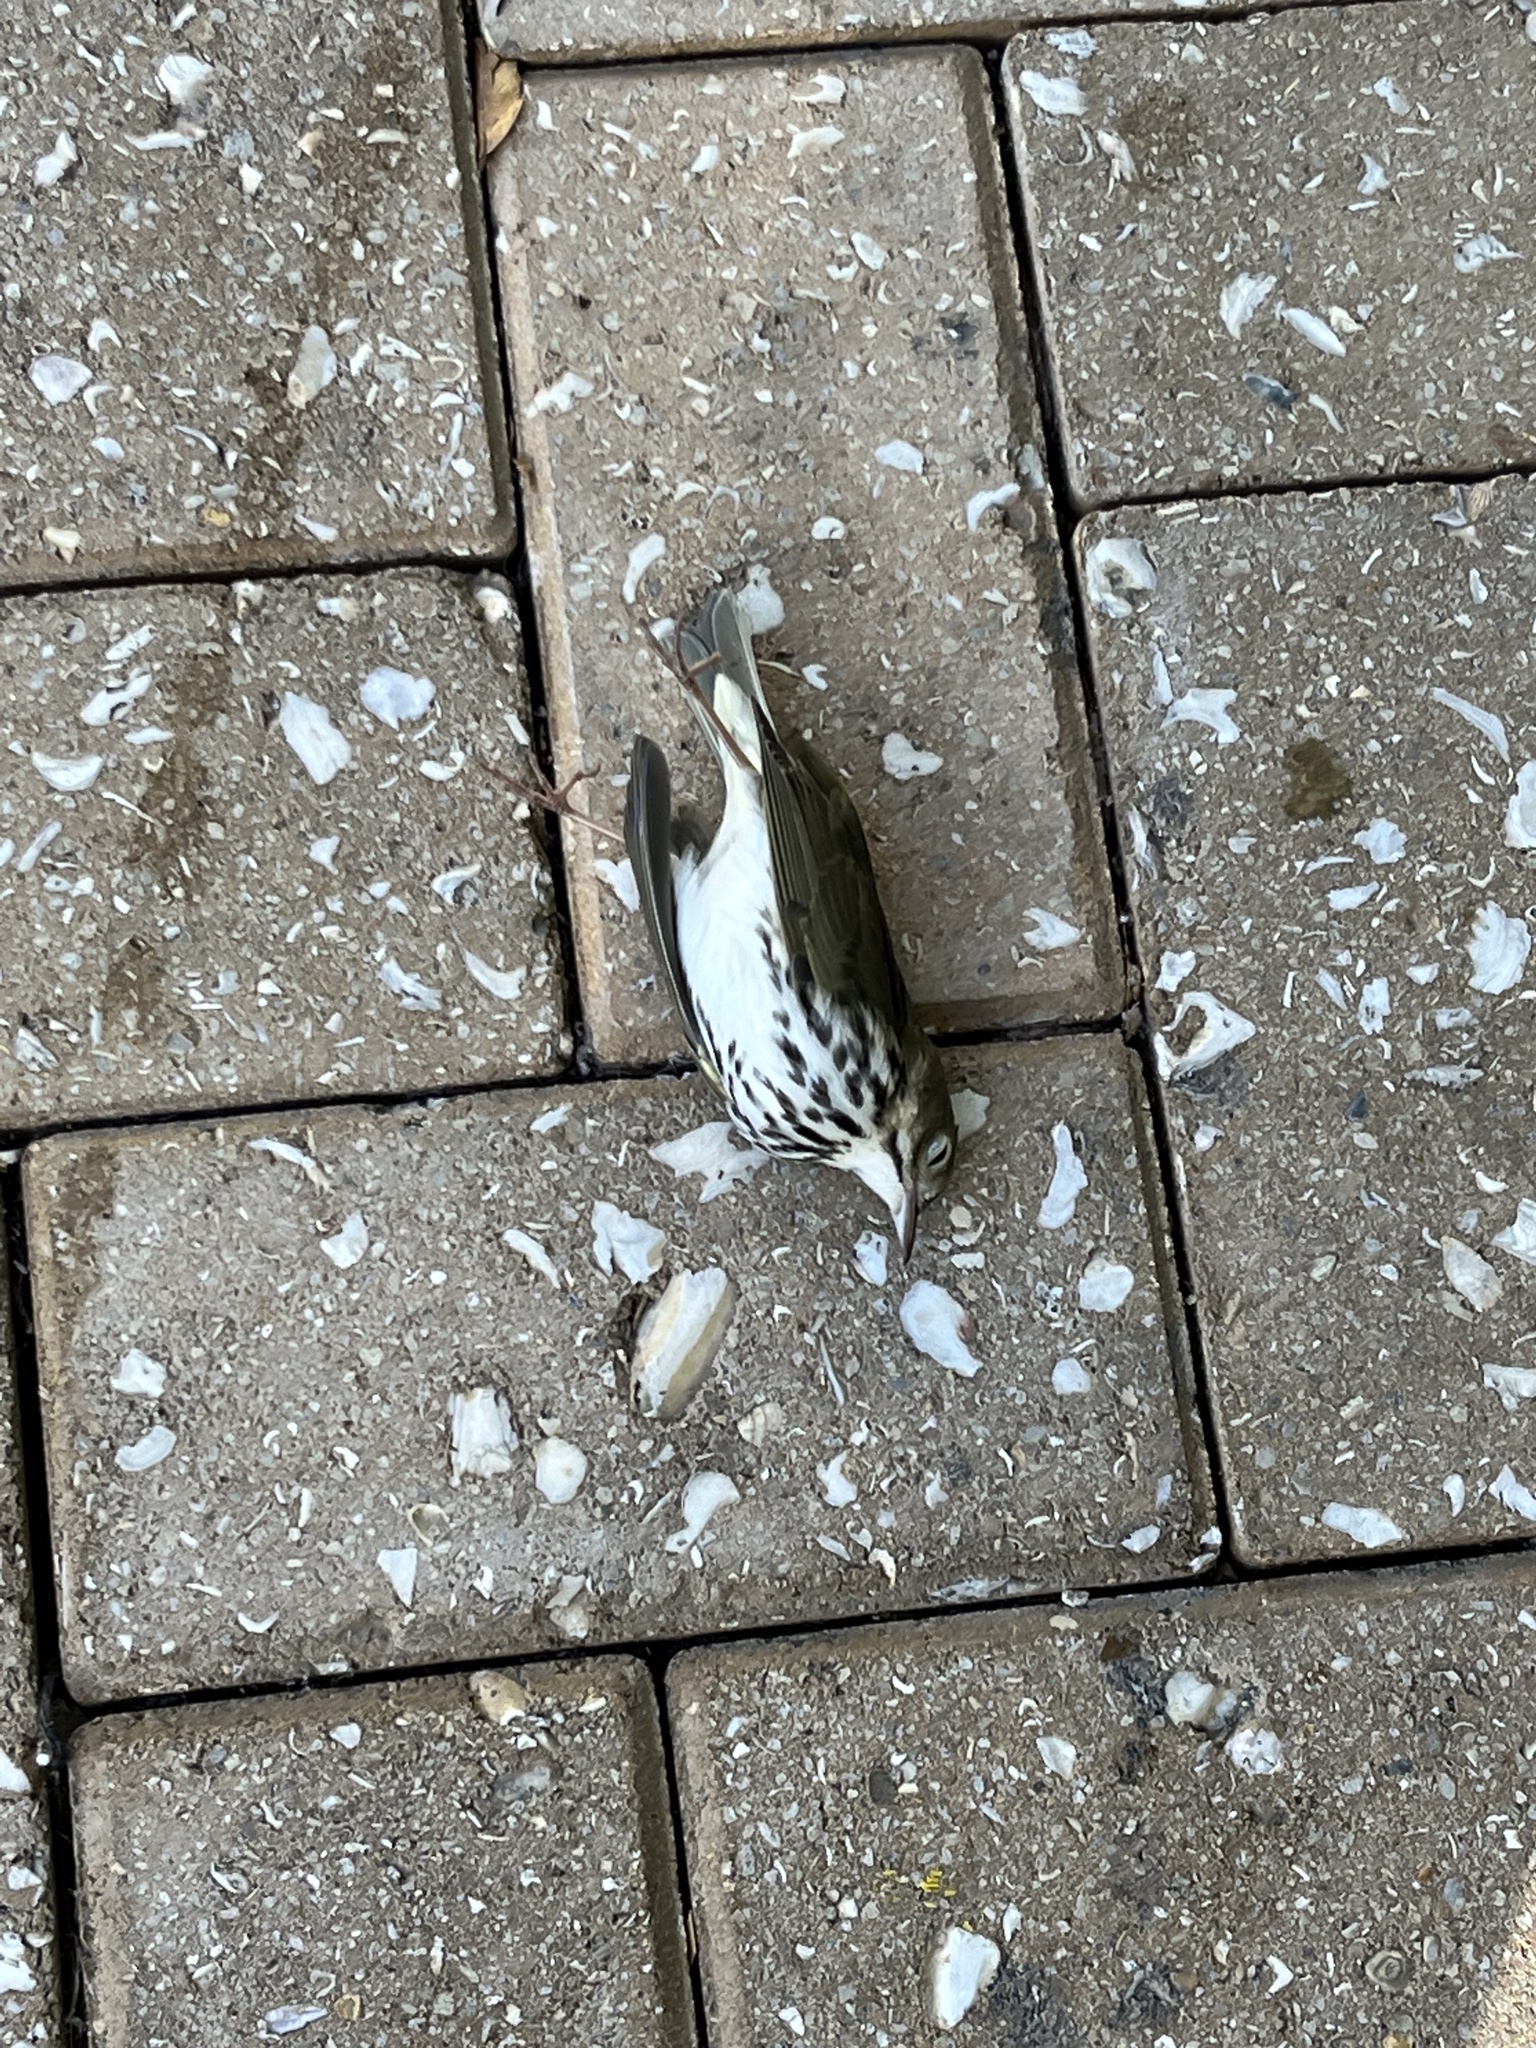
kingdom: Animalia
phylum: Chordata
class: Aves
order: Passeriformes
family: Parulidae
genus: Seiurus
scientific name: Seiurus aurocapilla
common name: Ovenbird
